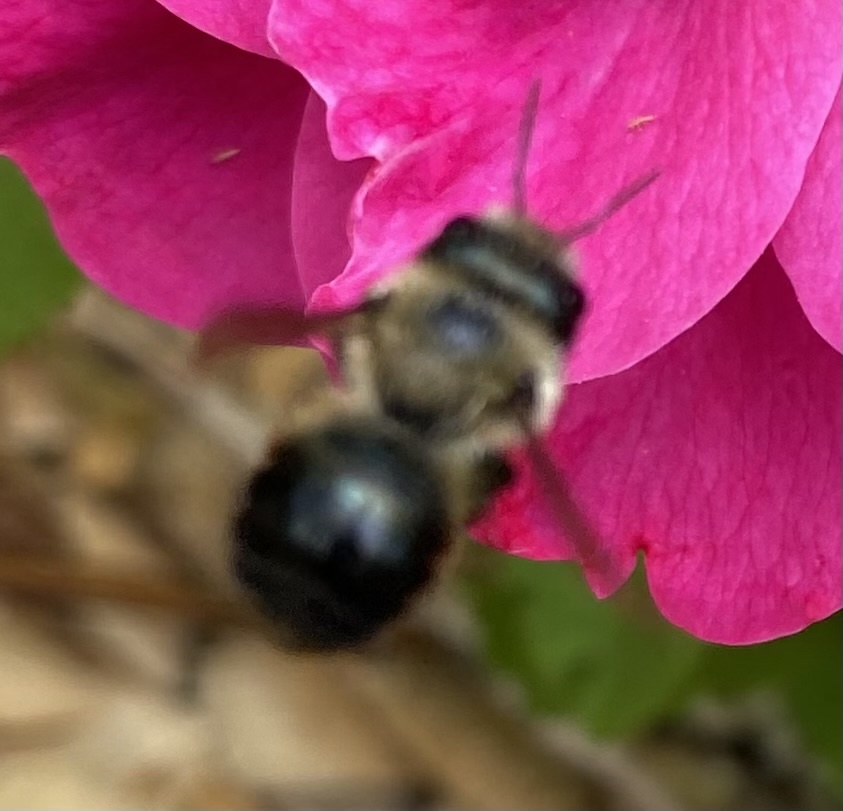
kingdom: Animalia
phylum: Arthropoda
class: Insecta
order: Hymenoptera
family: Megachilidae
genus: Osmia
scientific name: Osmia bucephala
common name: Bufflehead mason bee
